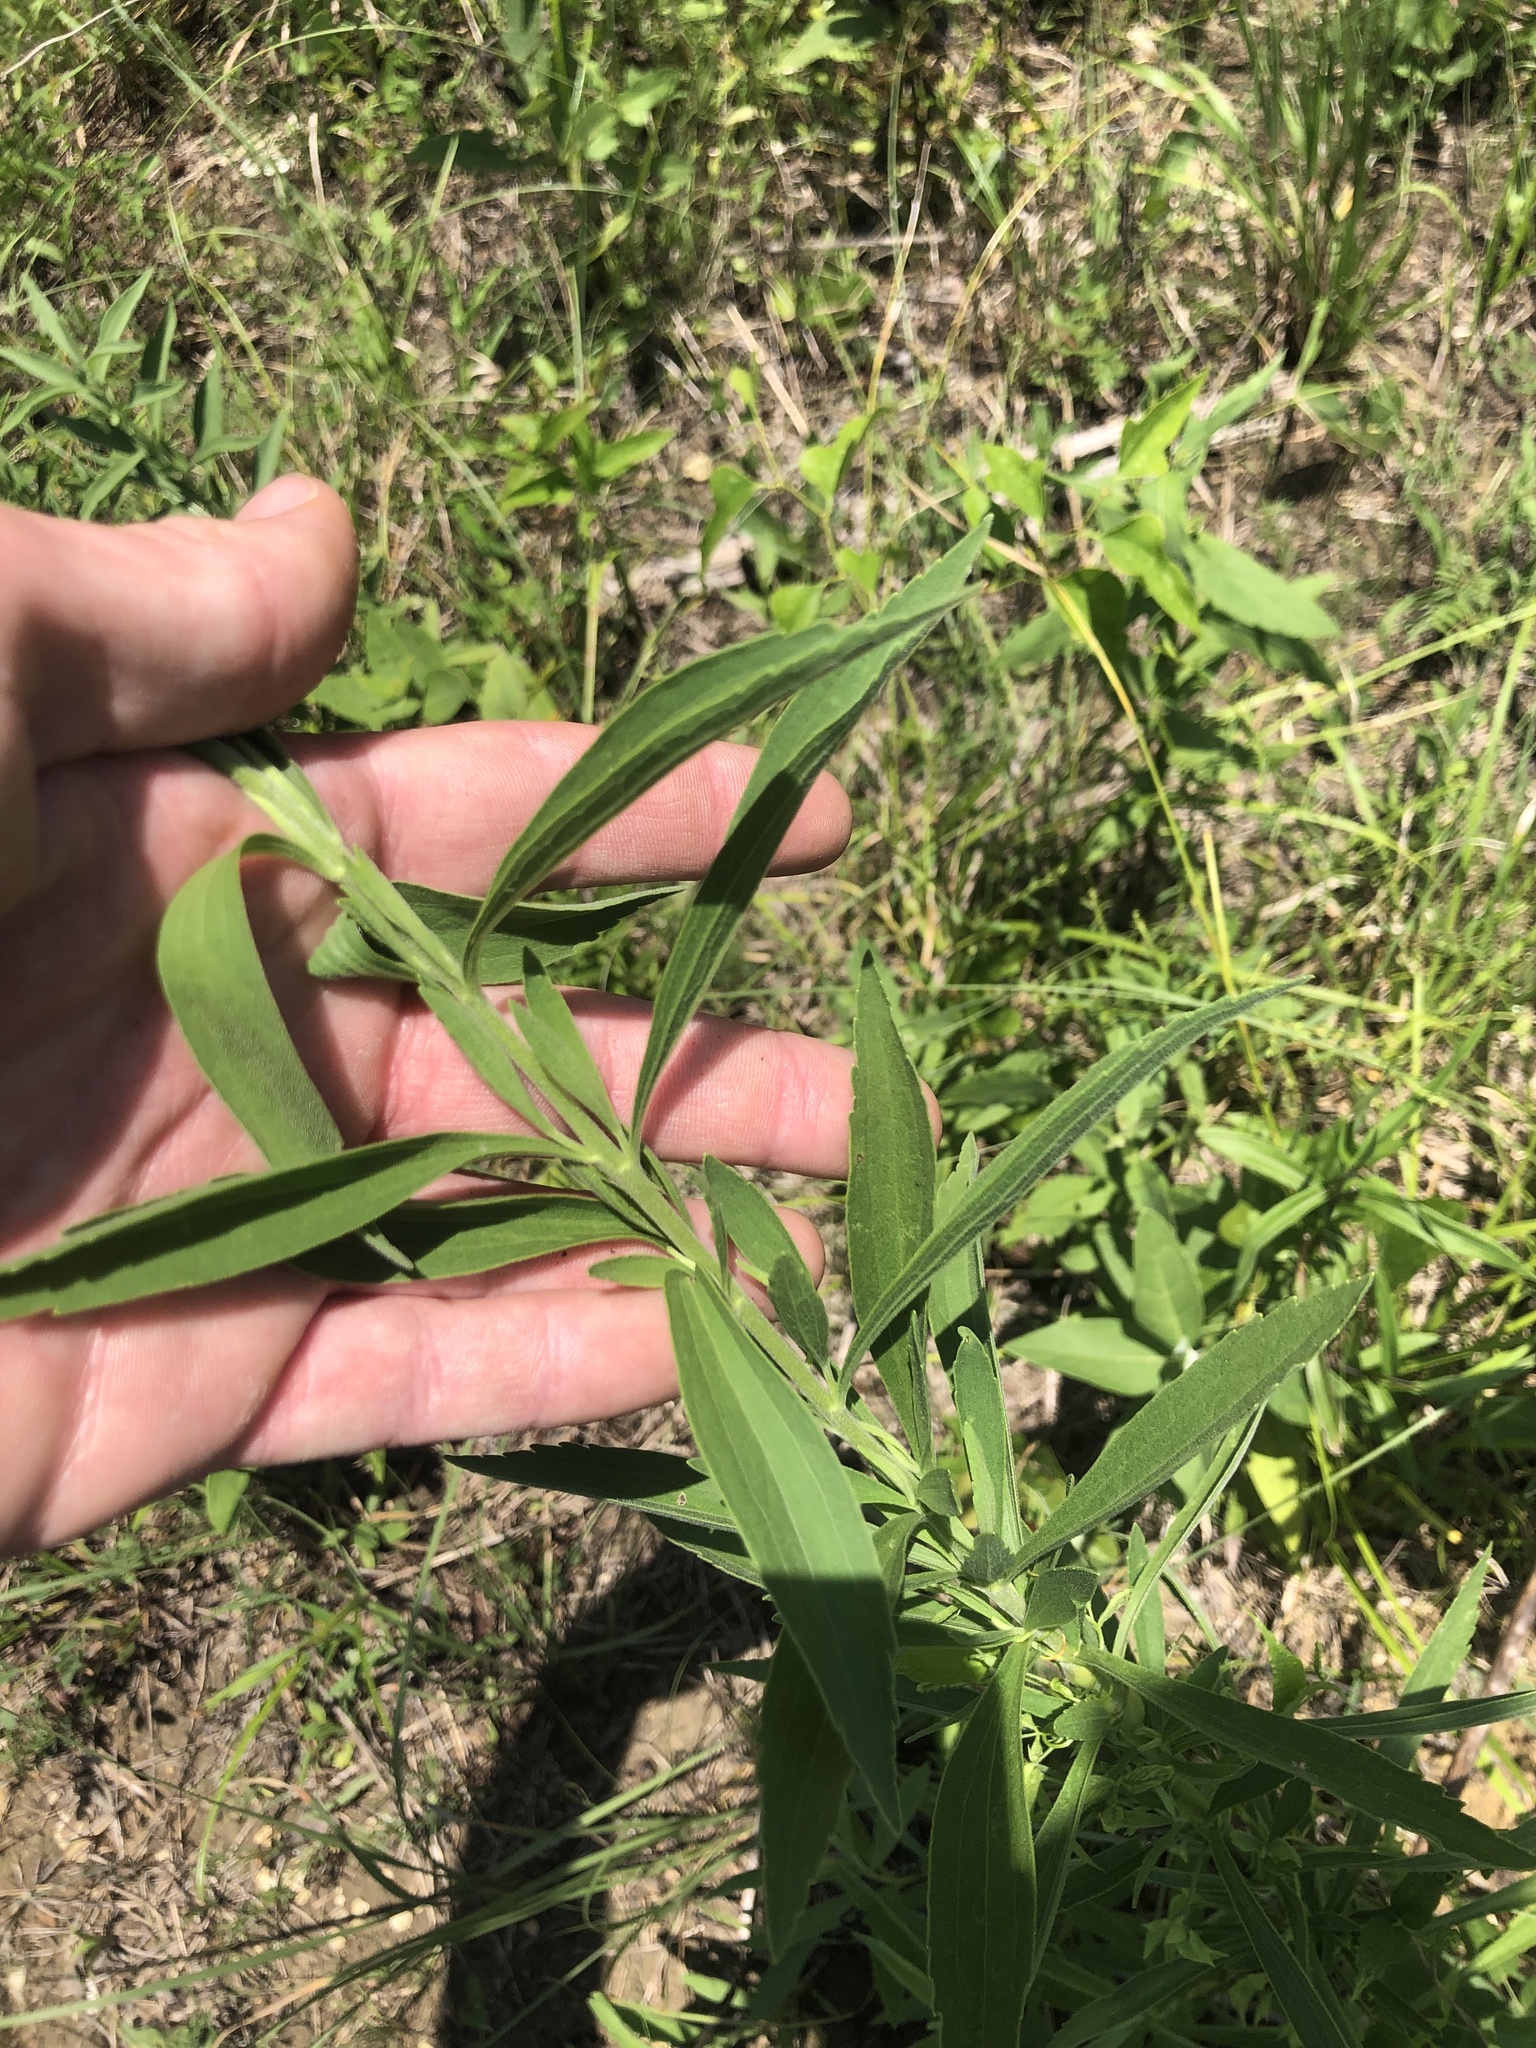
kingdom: Plantae
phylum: Tracheophyta
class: Magnoliopsida
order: Asterales
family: Asteraceae
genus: Eupatorium
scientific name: Eupatorium altissimum
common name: Tall thoroughwort
